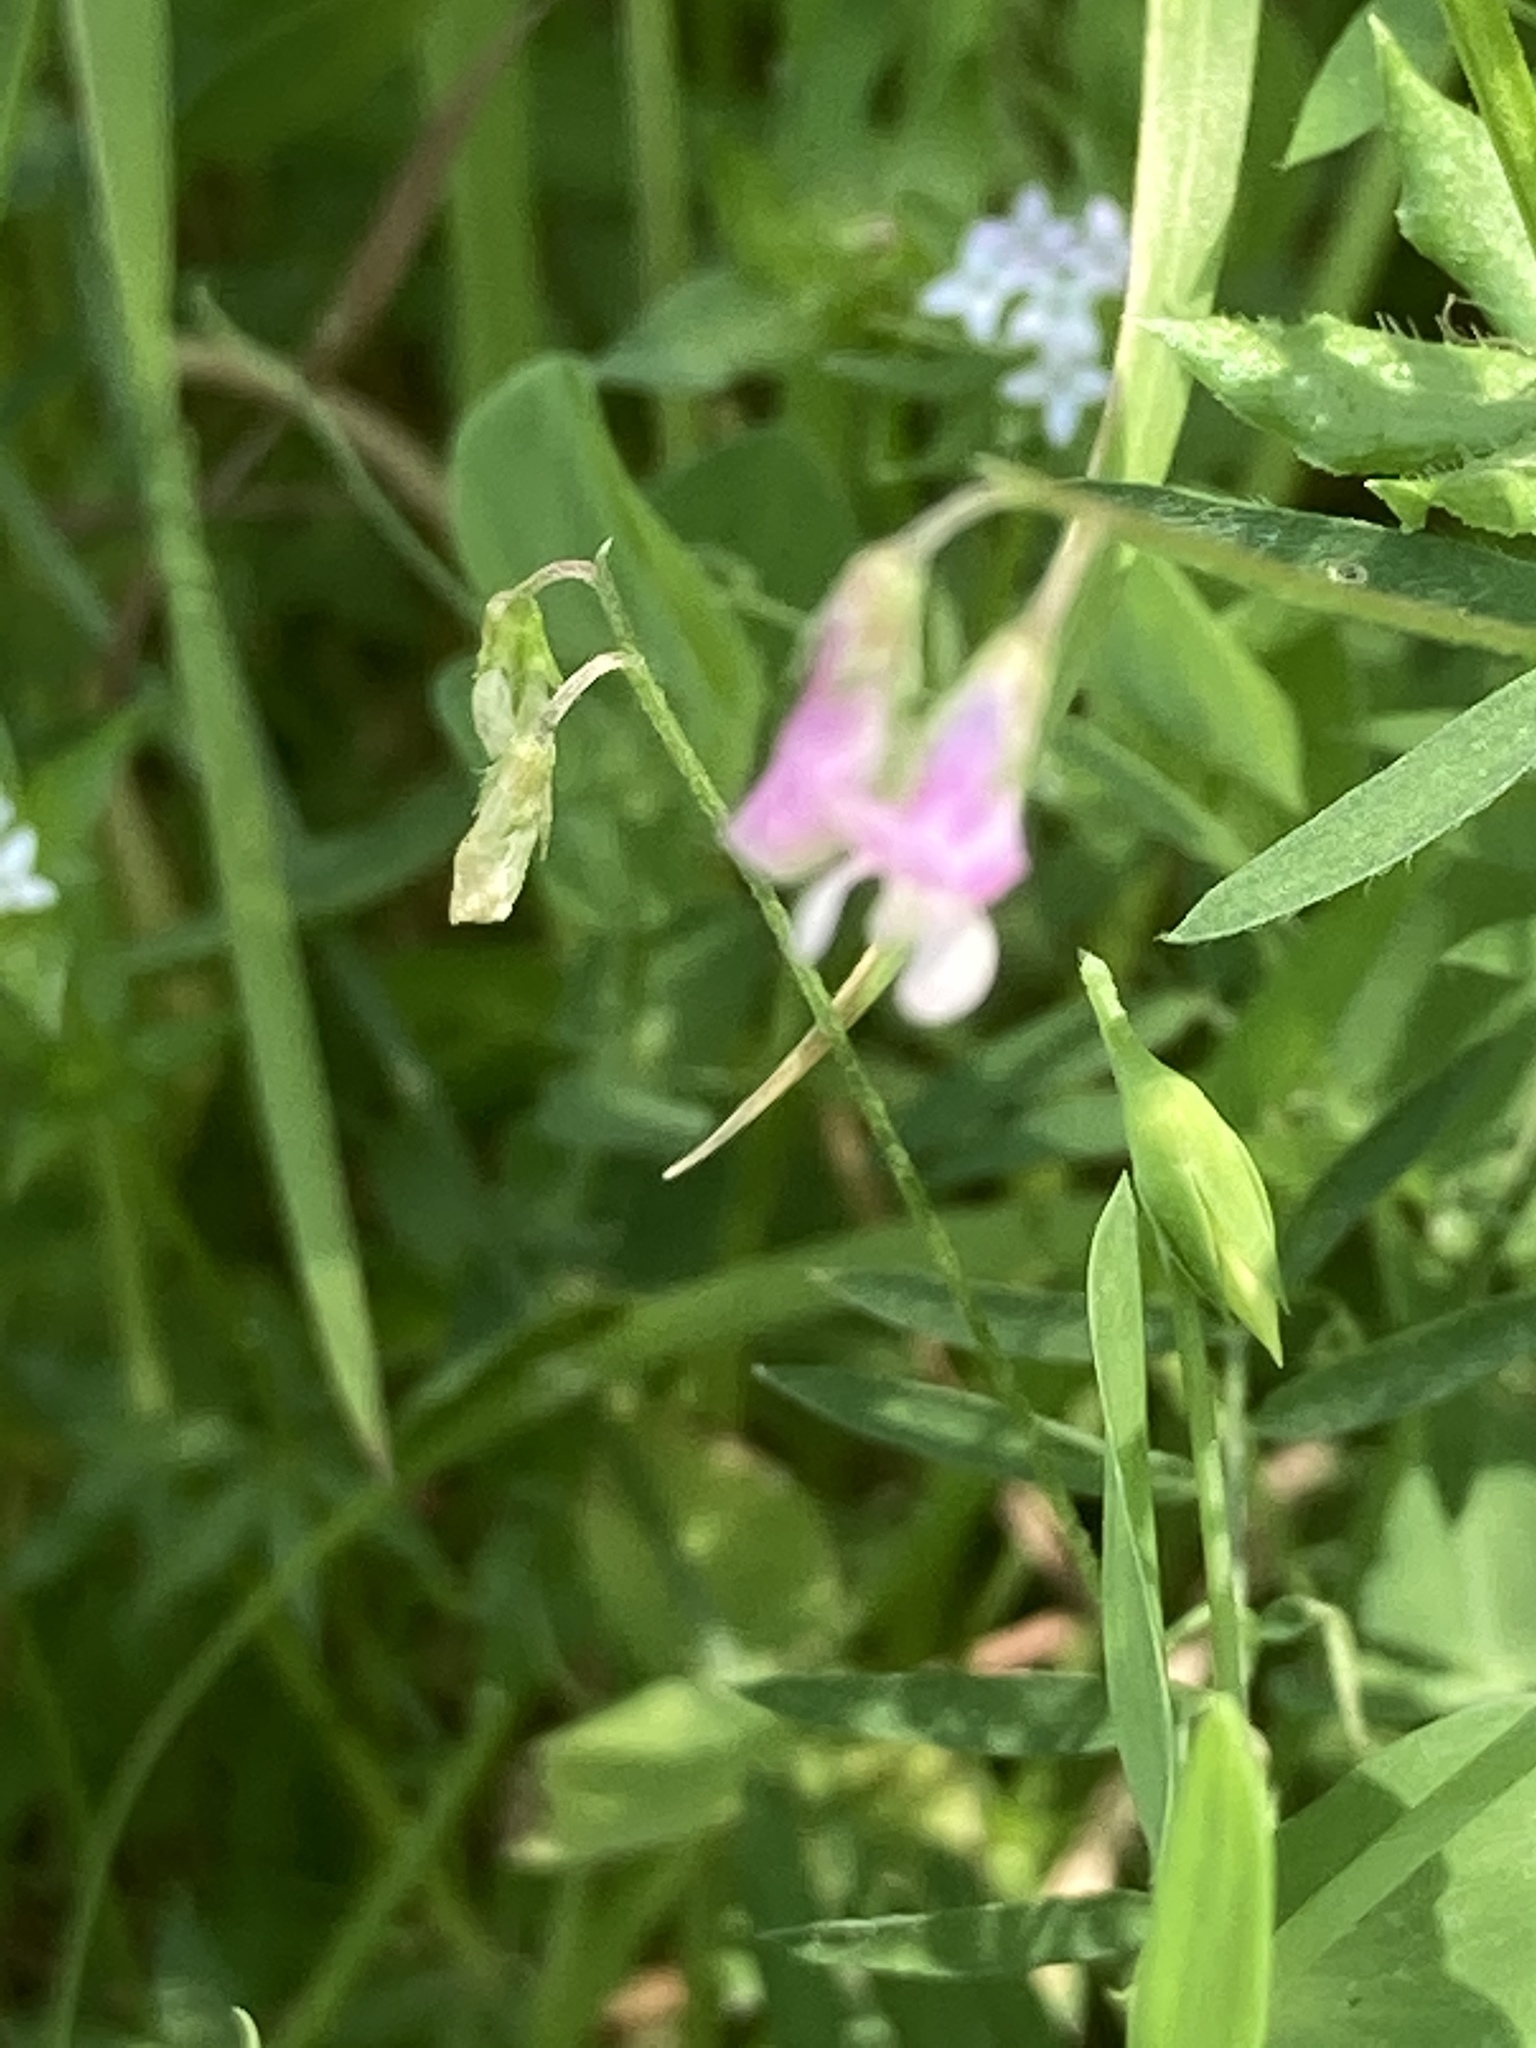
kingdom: Plantae
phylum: Tracheophyta
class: Magnoliopsida
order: Fabales
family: Fabaceae
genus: Vicia
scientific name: Vicia parviflora
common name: Slender tare
